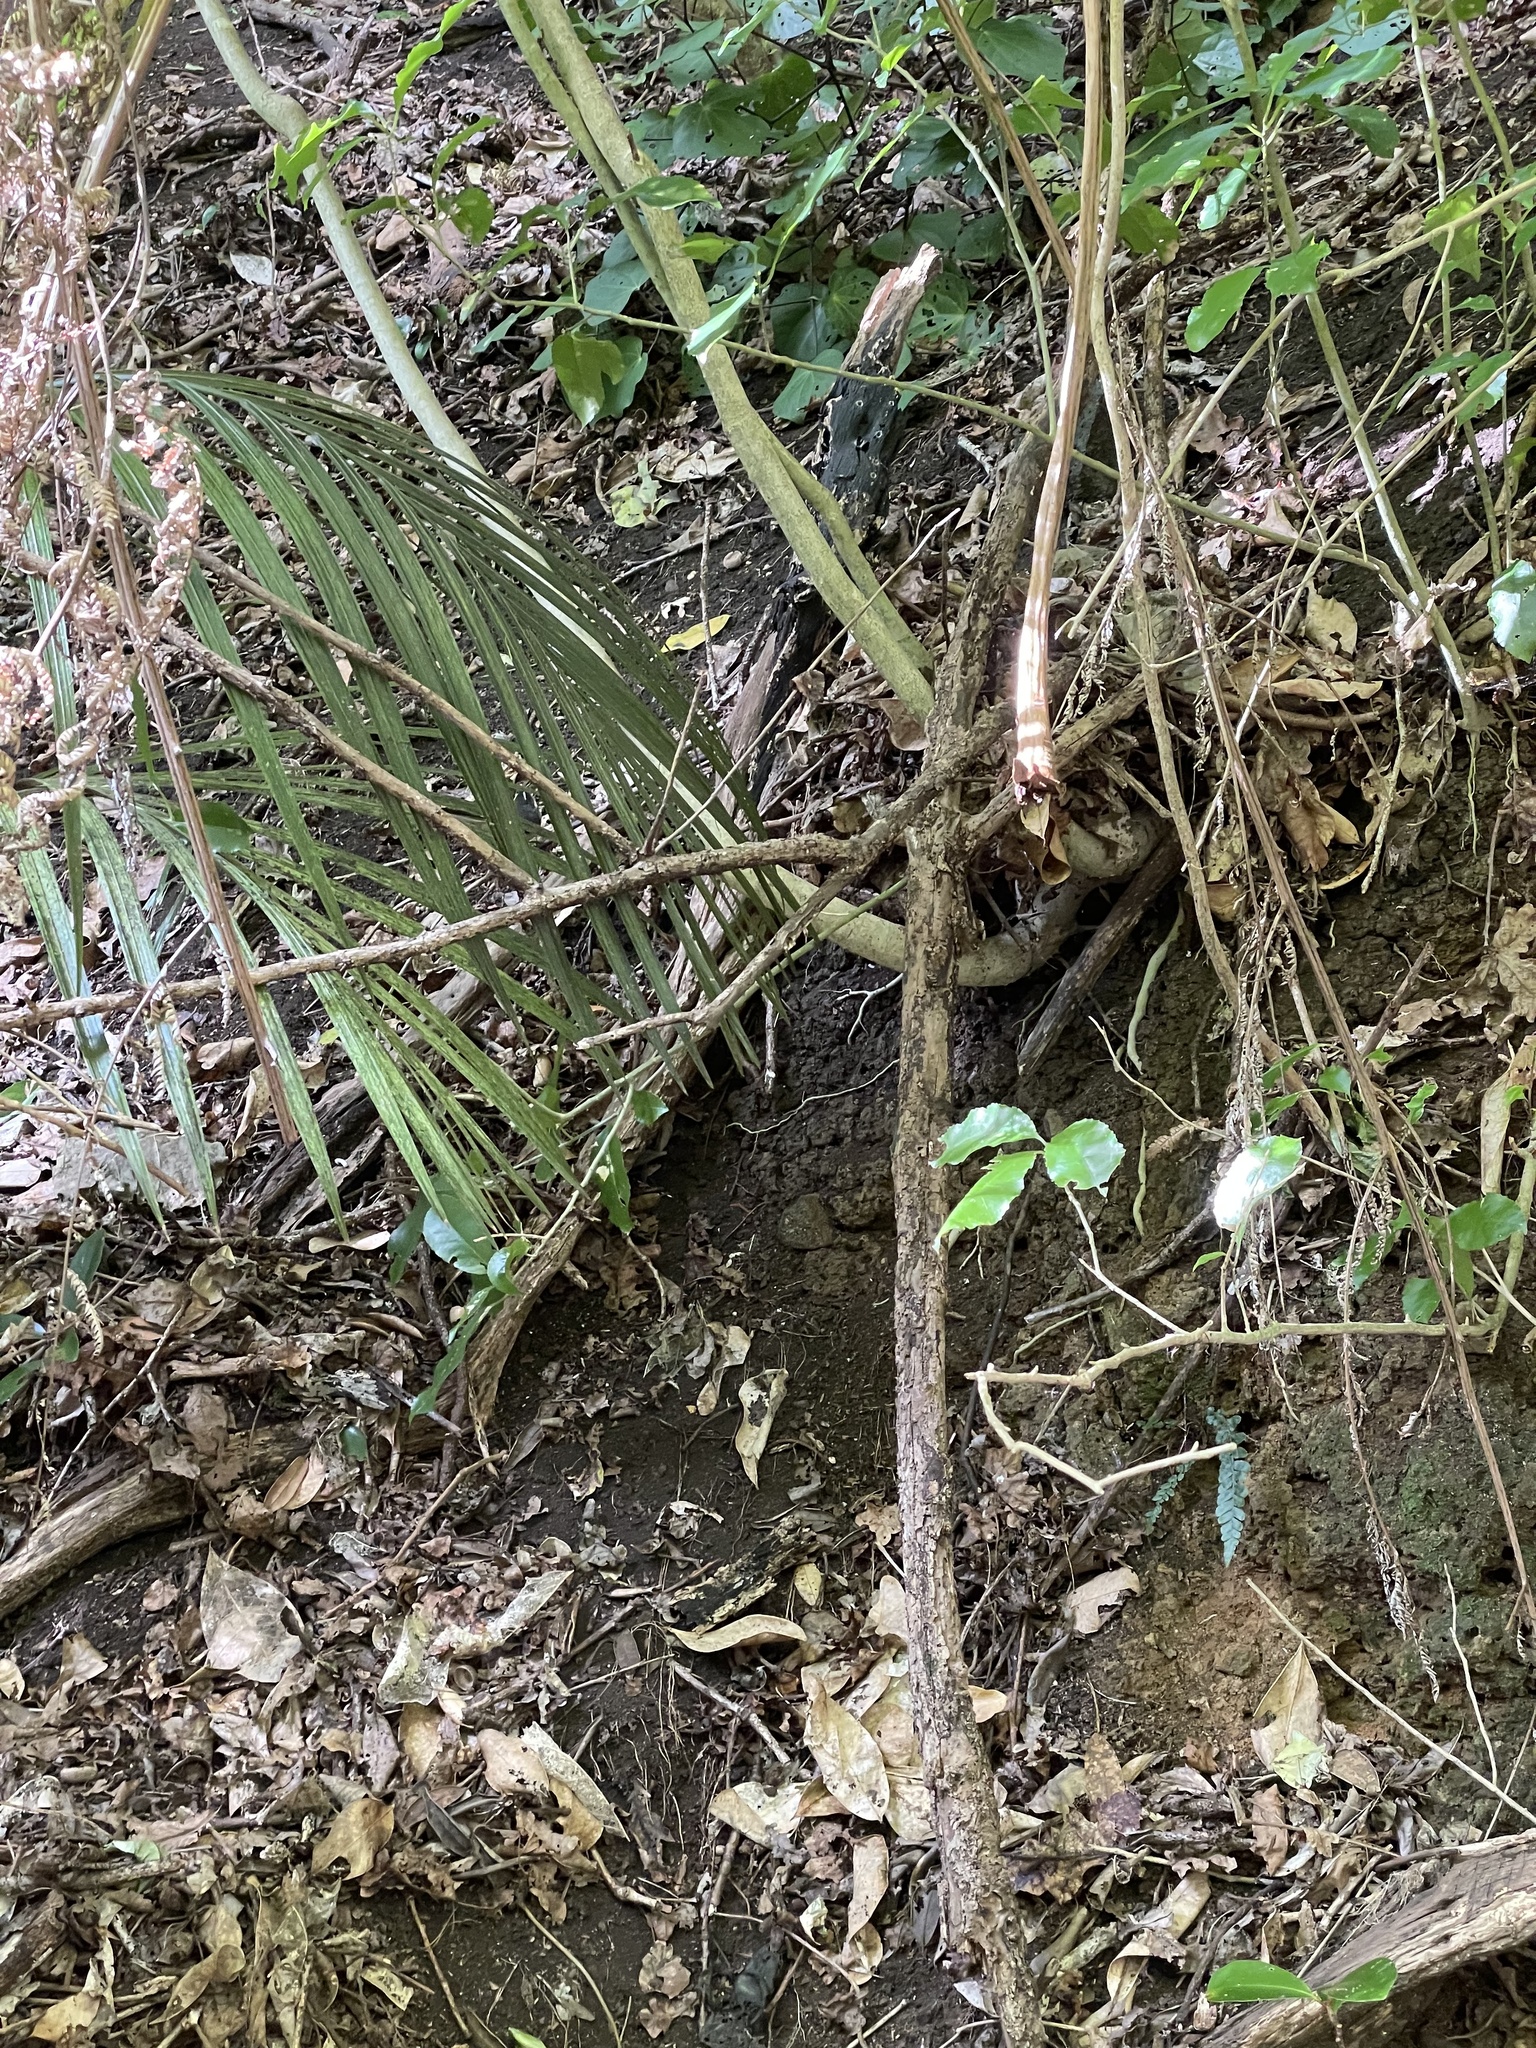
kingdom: Animalia
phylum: Chordata
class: Aves
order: Passeriformes
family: Rhipiduridae
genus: Rhipidura
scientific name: Rhipidura fuliginosa
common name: New zealand fantail
